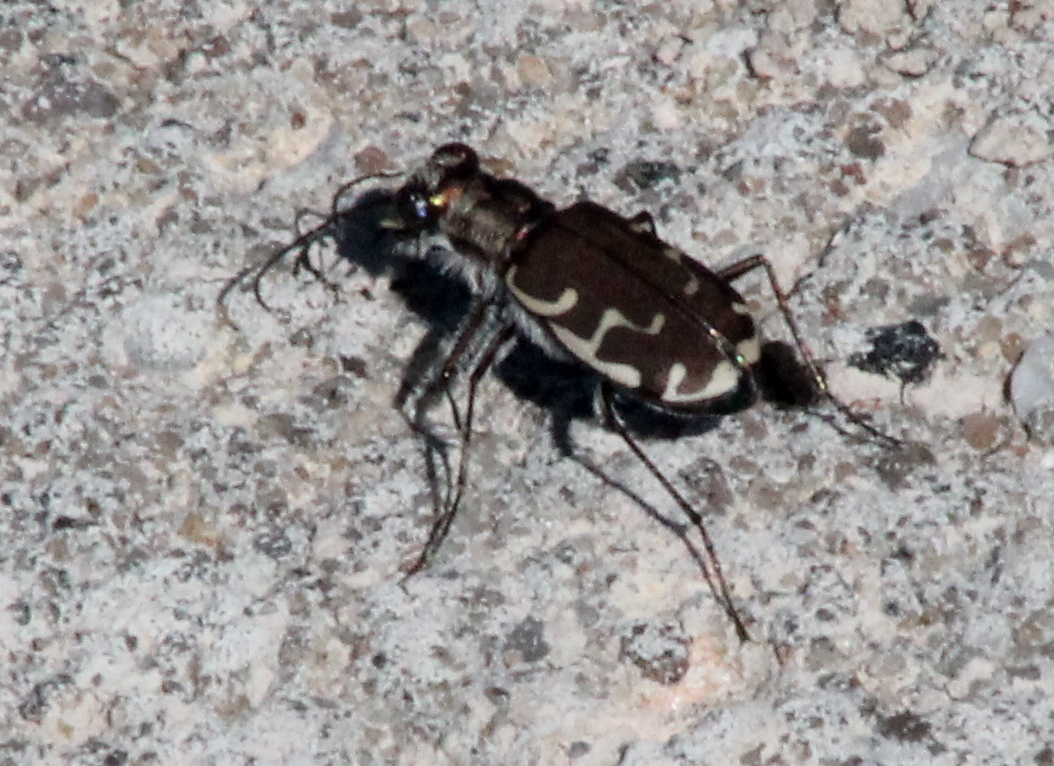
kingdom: Animalia
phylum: Arthropoda
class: Insecta
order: Coleoptera
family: Carabidae
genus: Cicindela
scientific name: Cicindela repanda
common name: Bronzed tiger beetle
